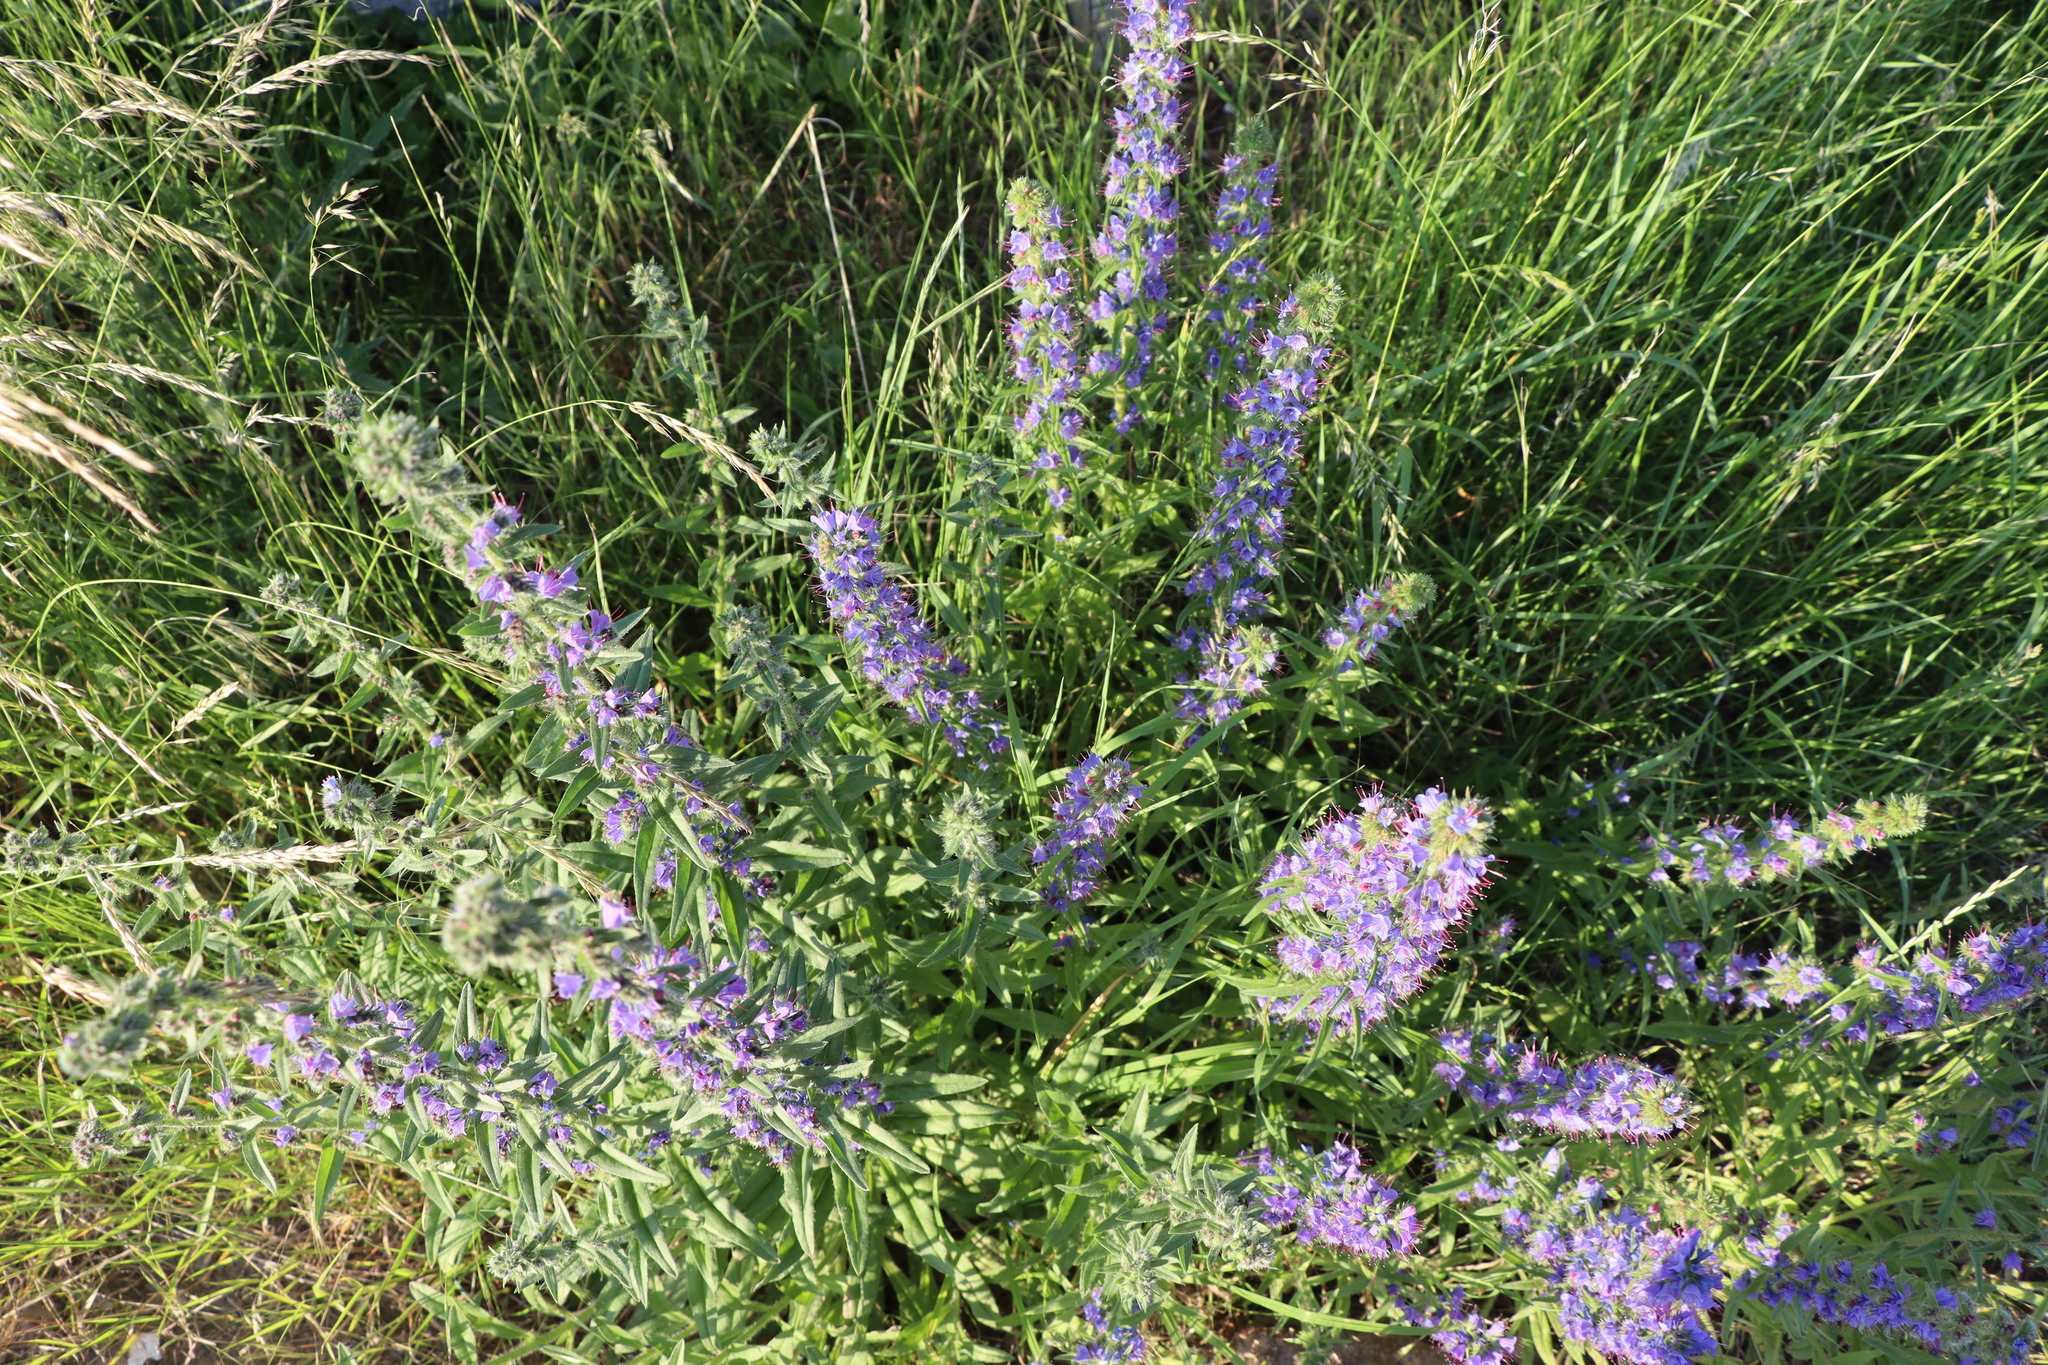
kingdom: Plantae
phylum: Tracheophyta
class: Magnoliopsida
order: Boraginales
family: Boraginaceae
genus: Echium
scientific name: Echium vulgare
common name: Common viper's bugloss
